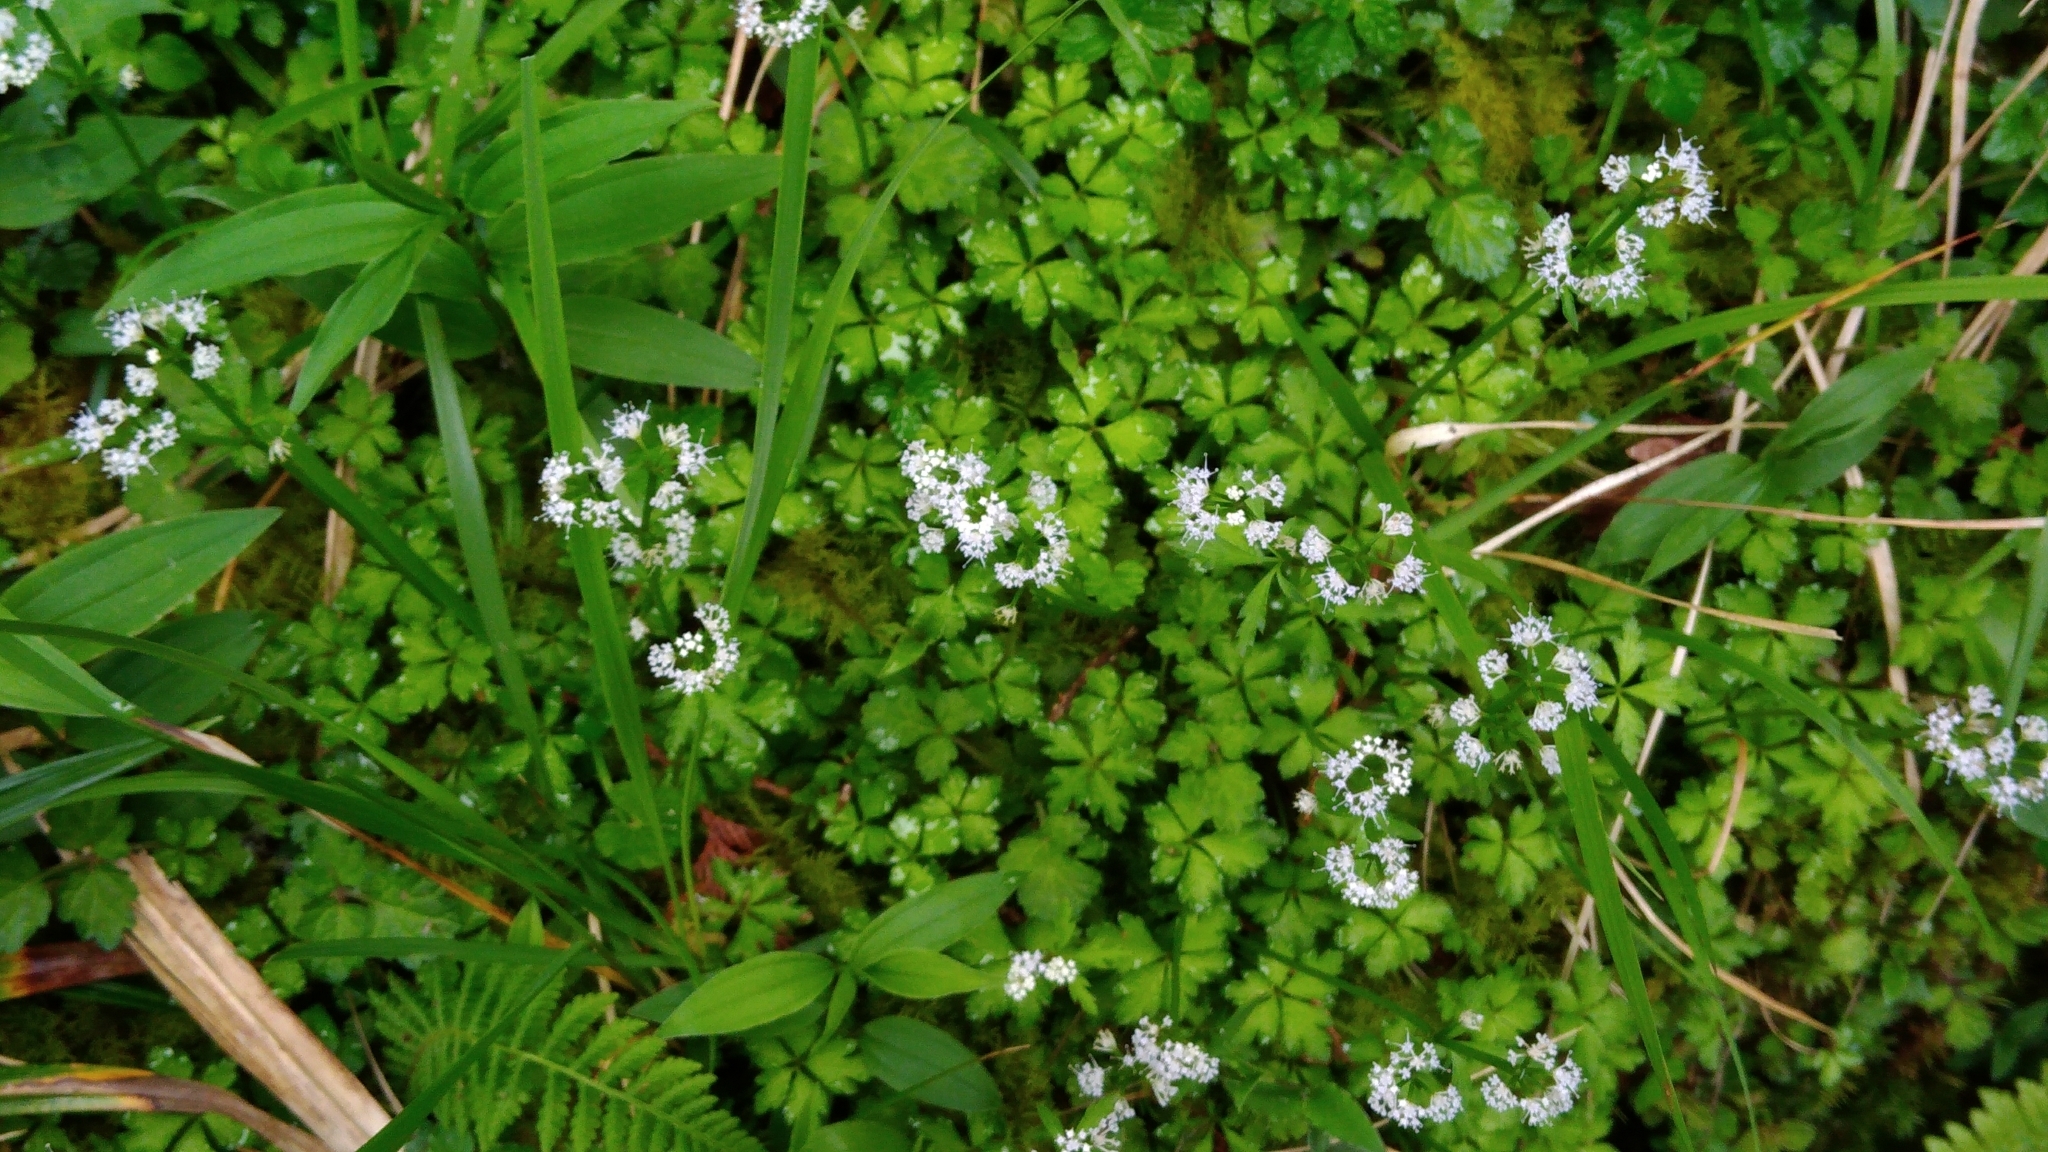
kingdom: Plantae
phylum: Tracheophyta
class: Magnoliopsida
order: Apiales
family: Apiaceae
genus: Sanicula
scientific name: Sanicula petagnioides
